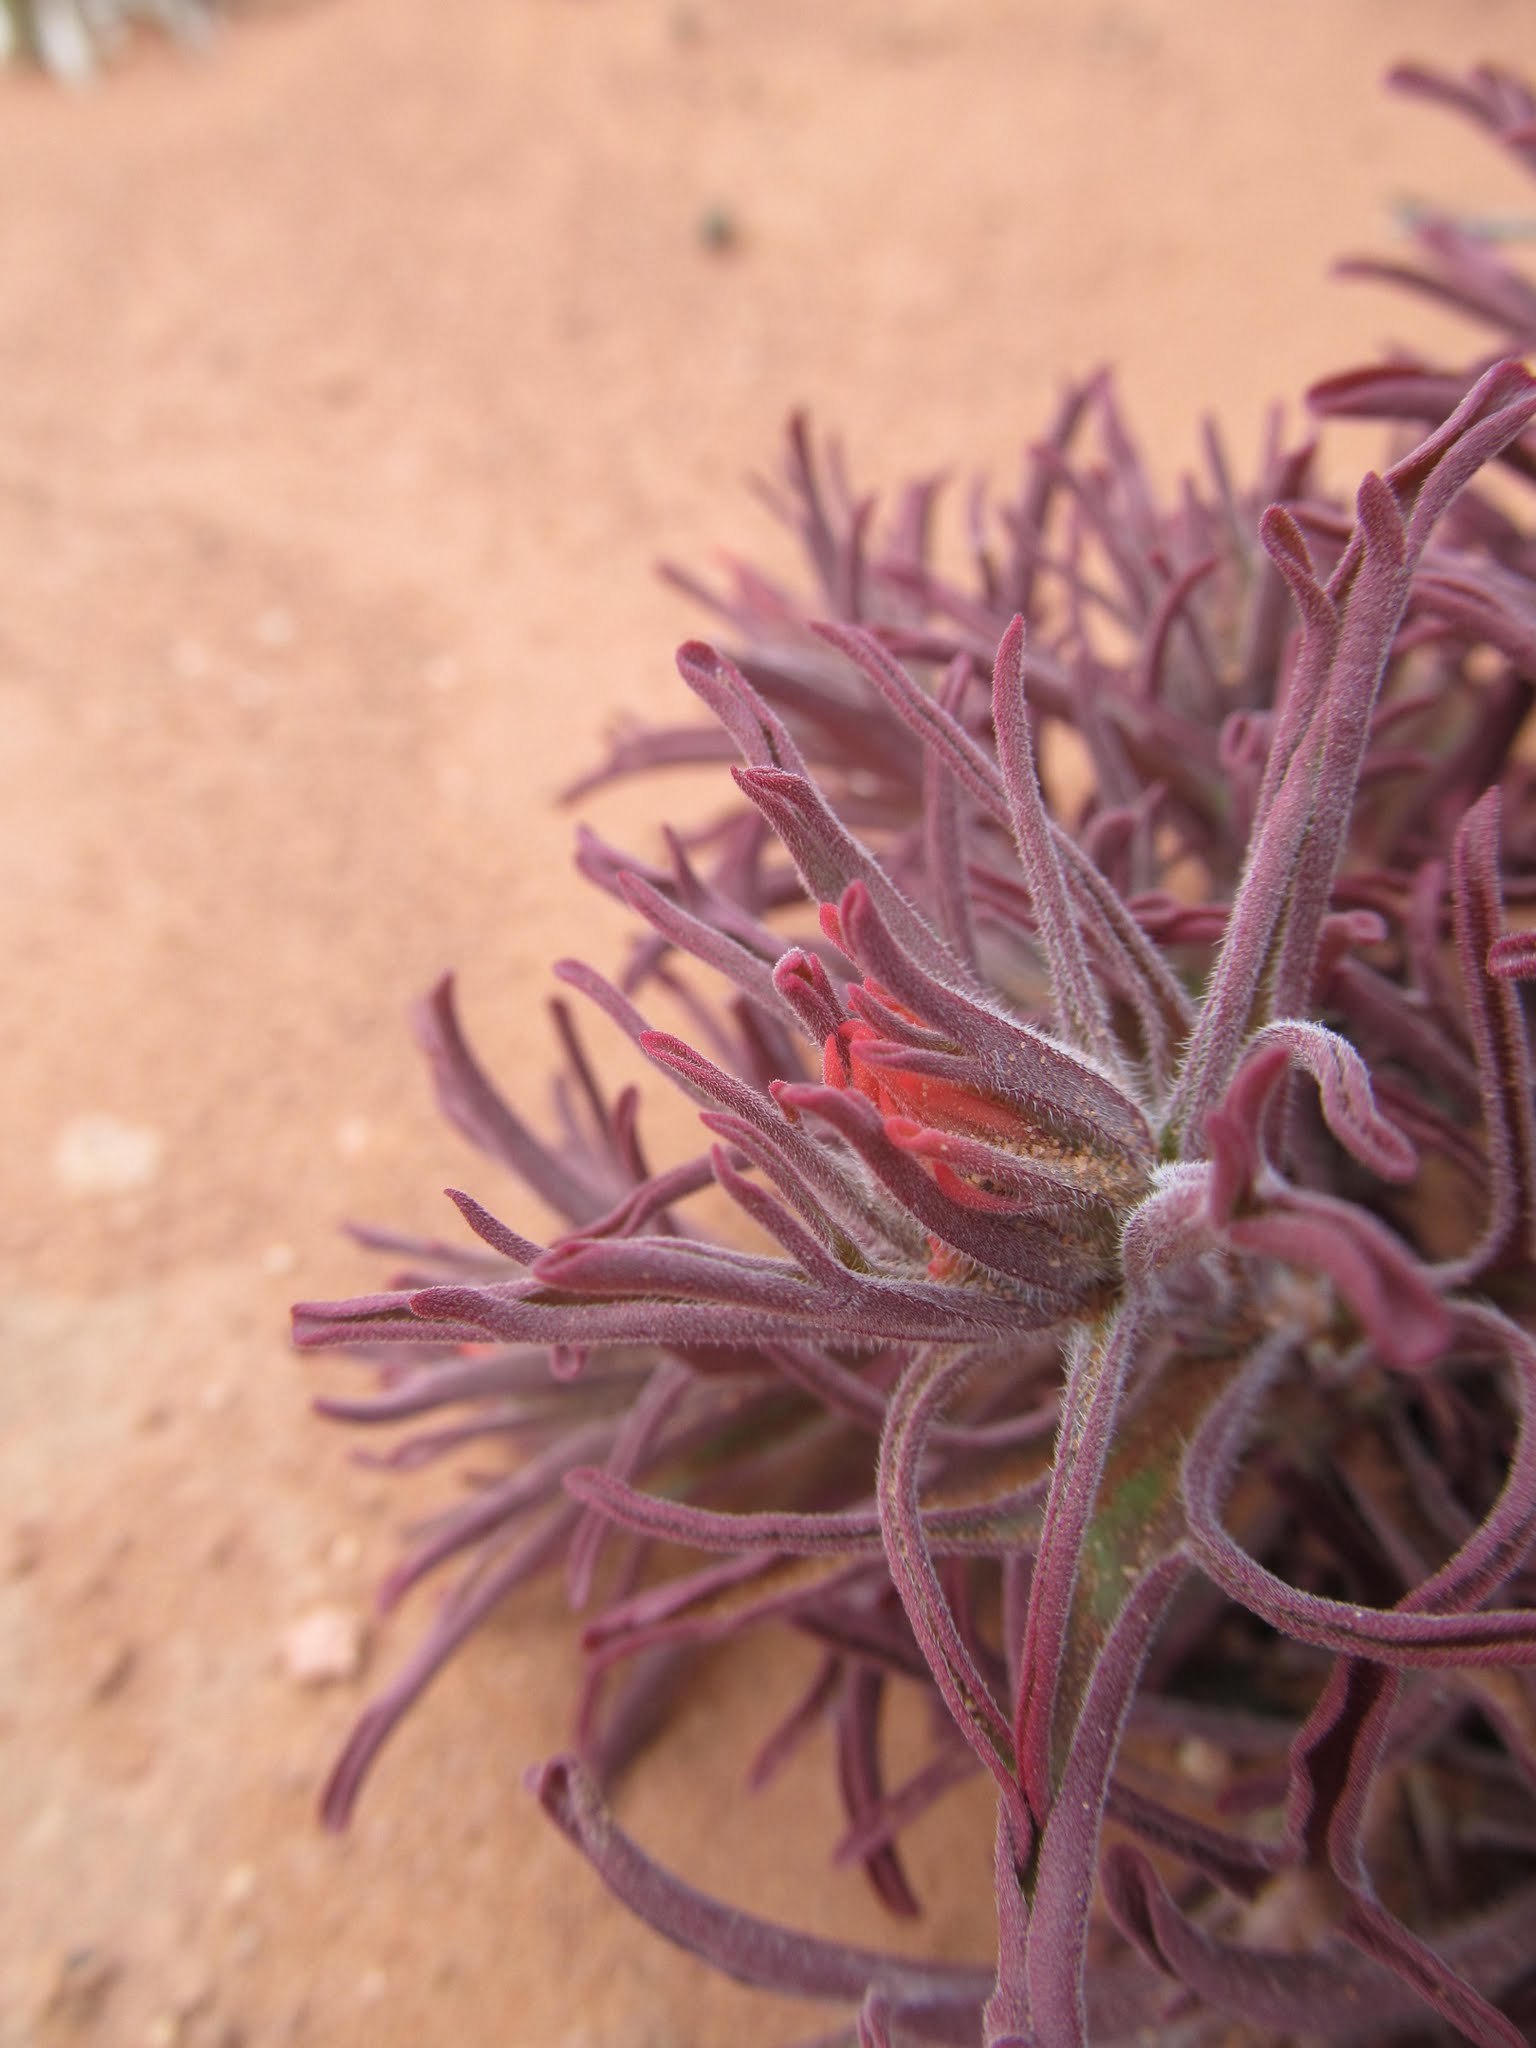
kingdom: Plantae
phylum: Tracheophyta
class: Magnoliopsida
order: Lamiales
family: Orobanchaceae
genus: Castilleja
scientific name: Castilleja chromosa
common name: Desert paintbrush
